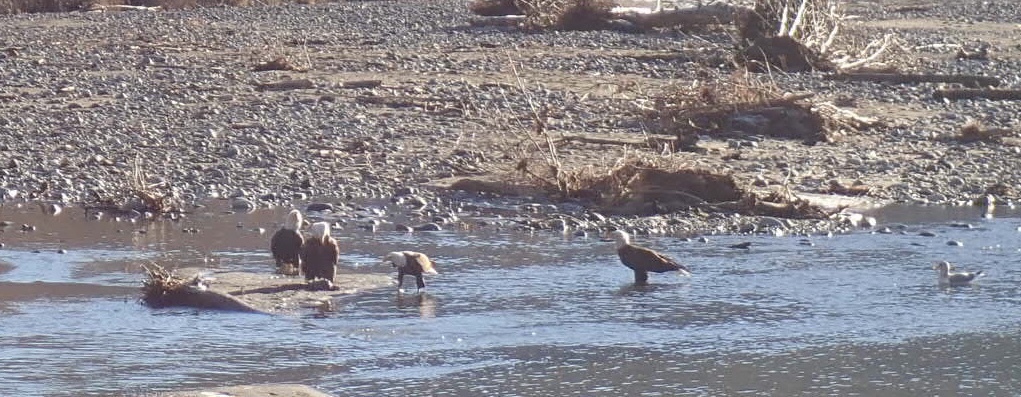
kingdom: Animalia
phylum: Chordata
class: Aves
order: Accipitriformes
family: Accipitridae
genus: Haliaeetus
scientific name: Haliaeetus leucocephalus
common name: Bald eagle
